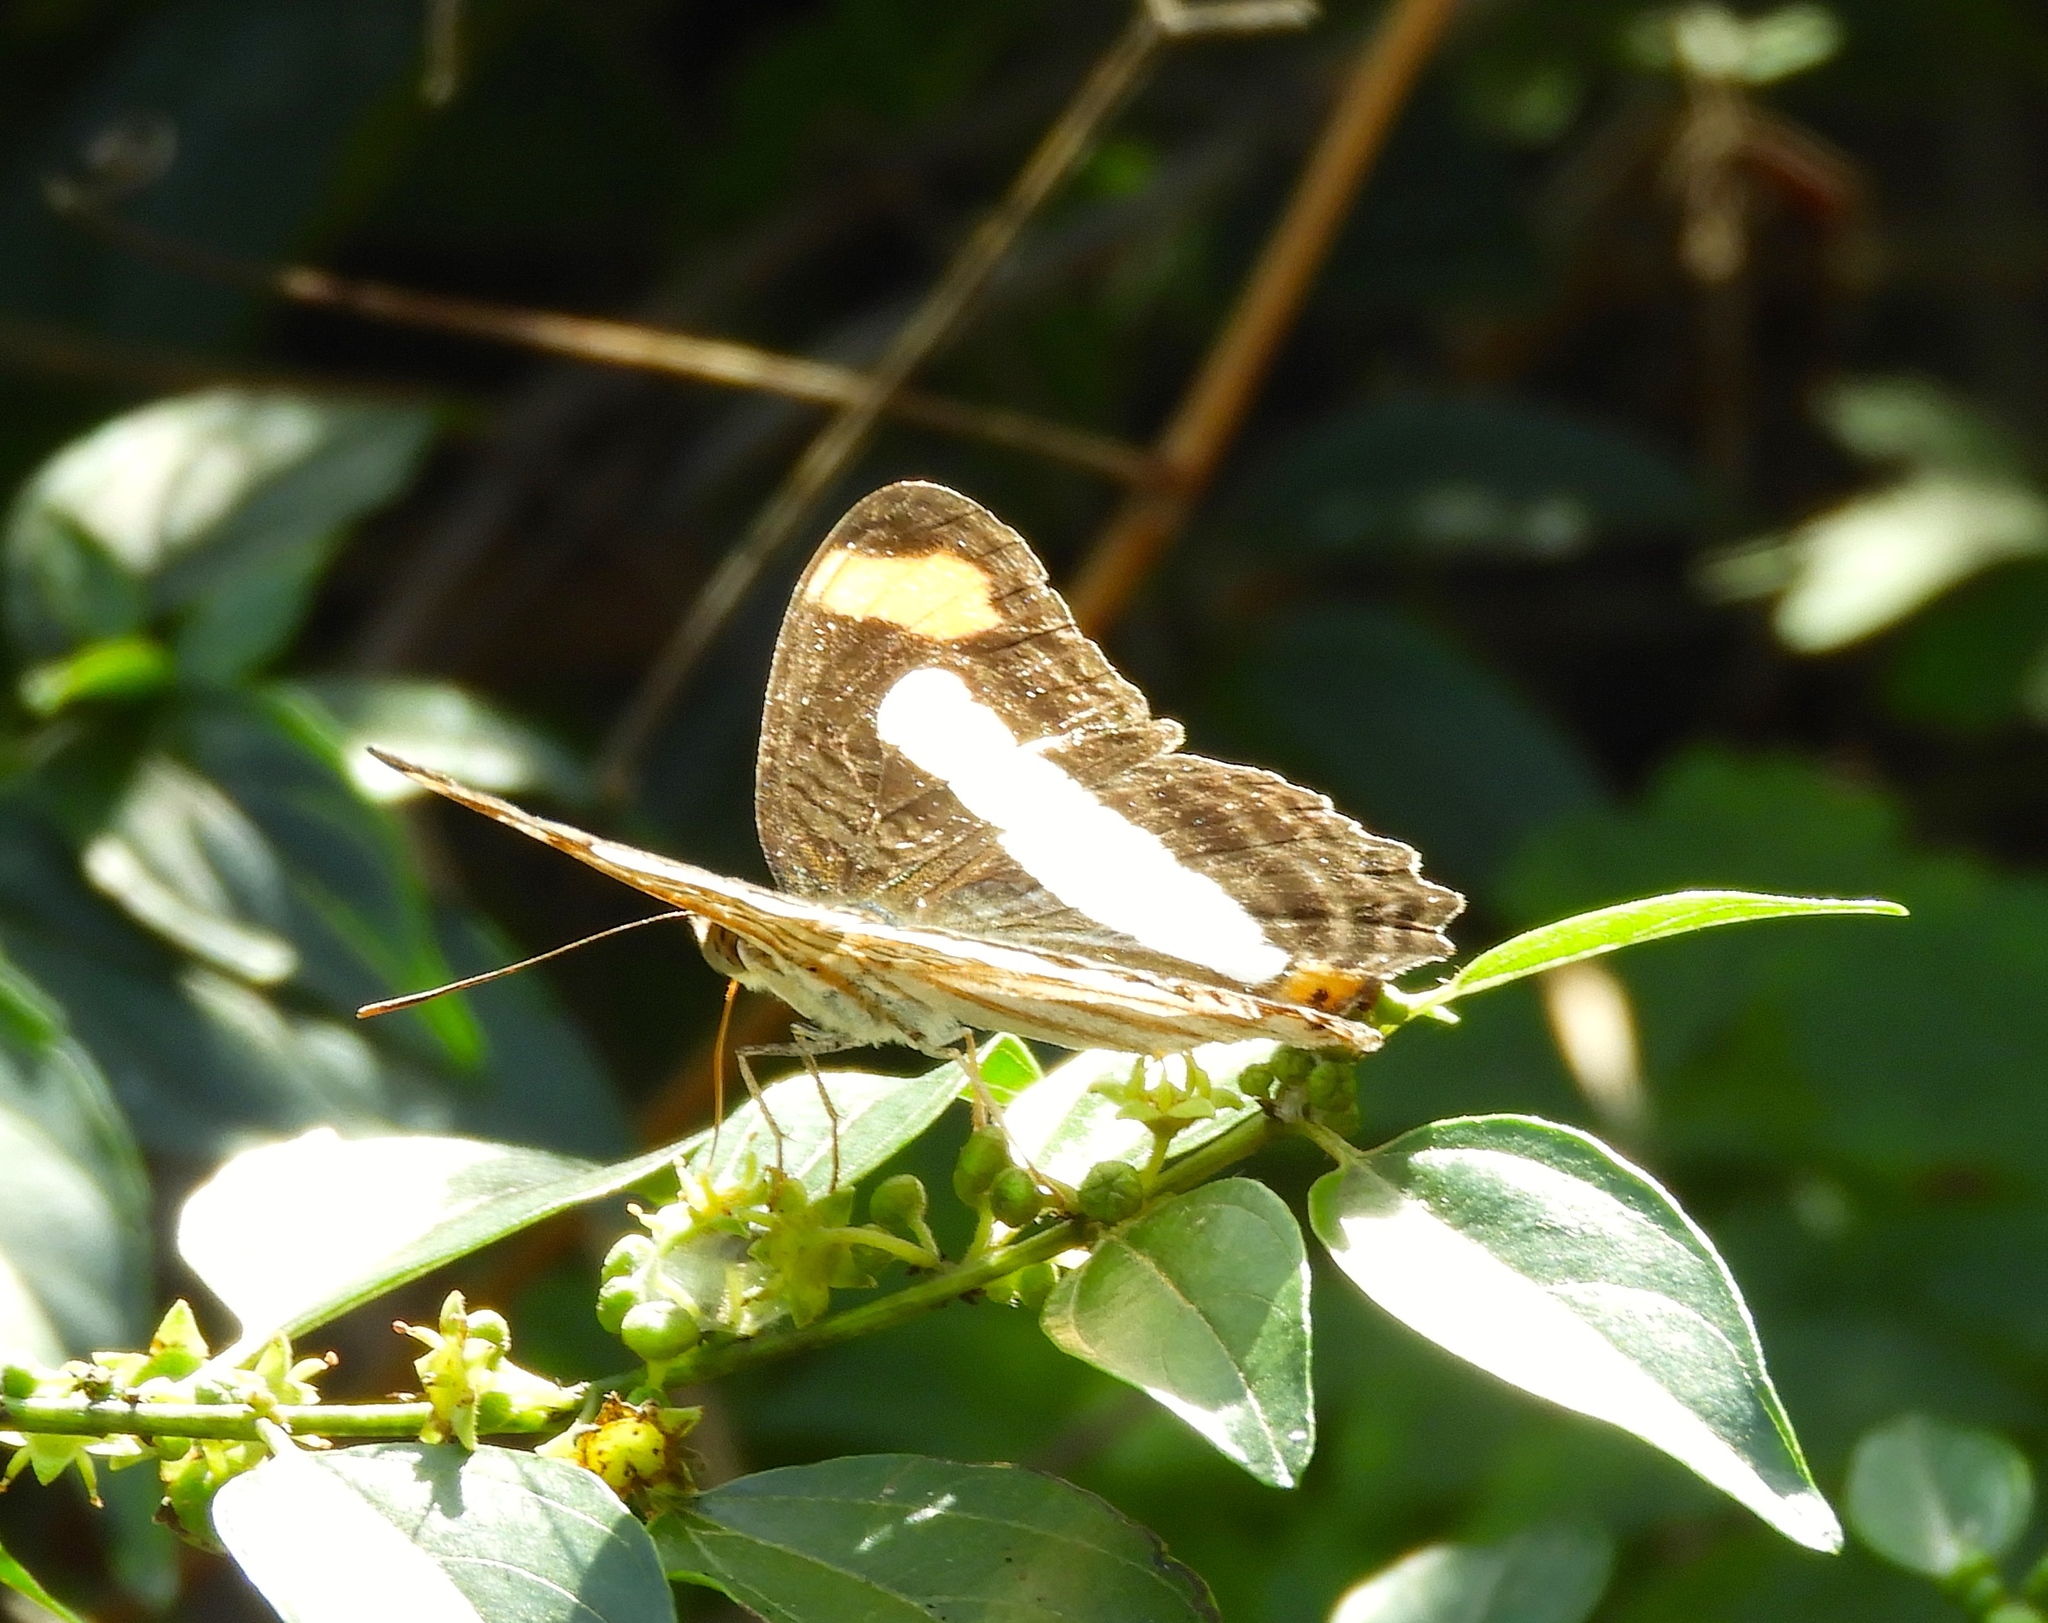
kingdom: Animalia
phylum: Arthropoda
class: Insecta
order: Lepidoptera
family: Nymphalidae
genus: Limenitis
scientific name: Limenitis Adelpha basiloides
